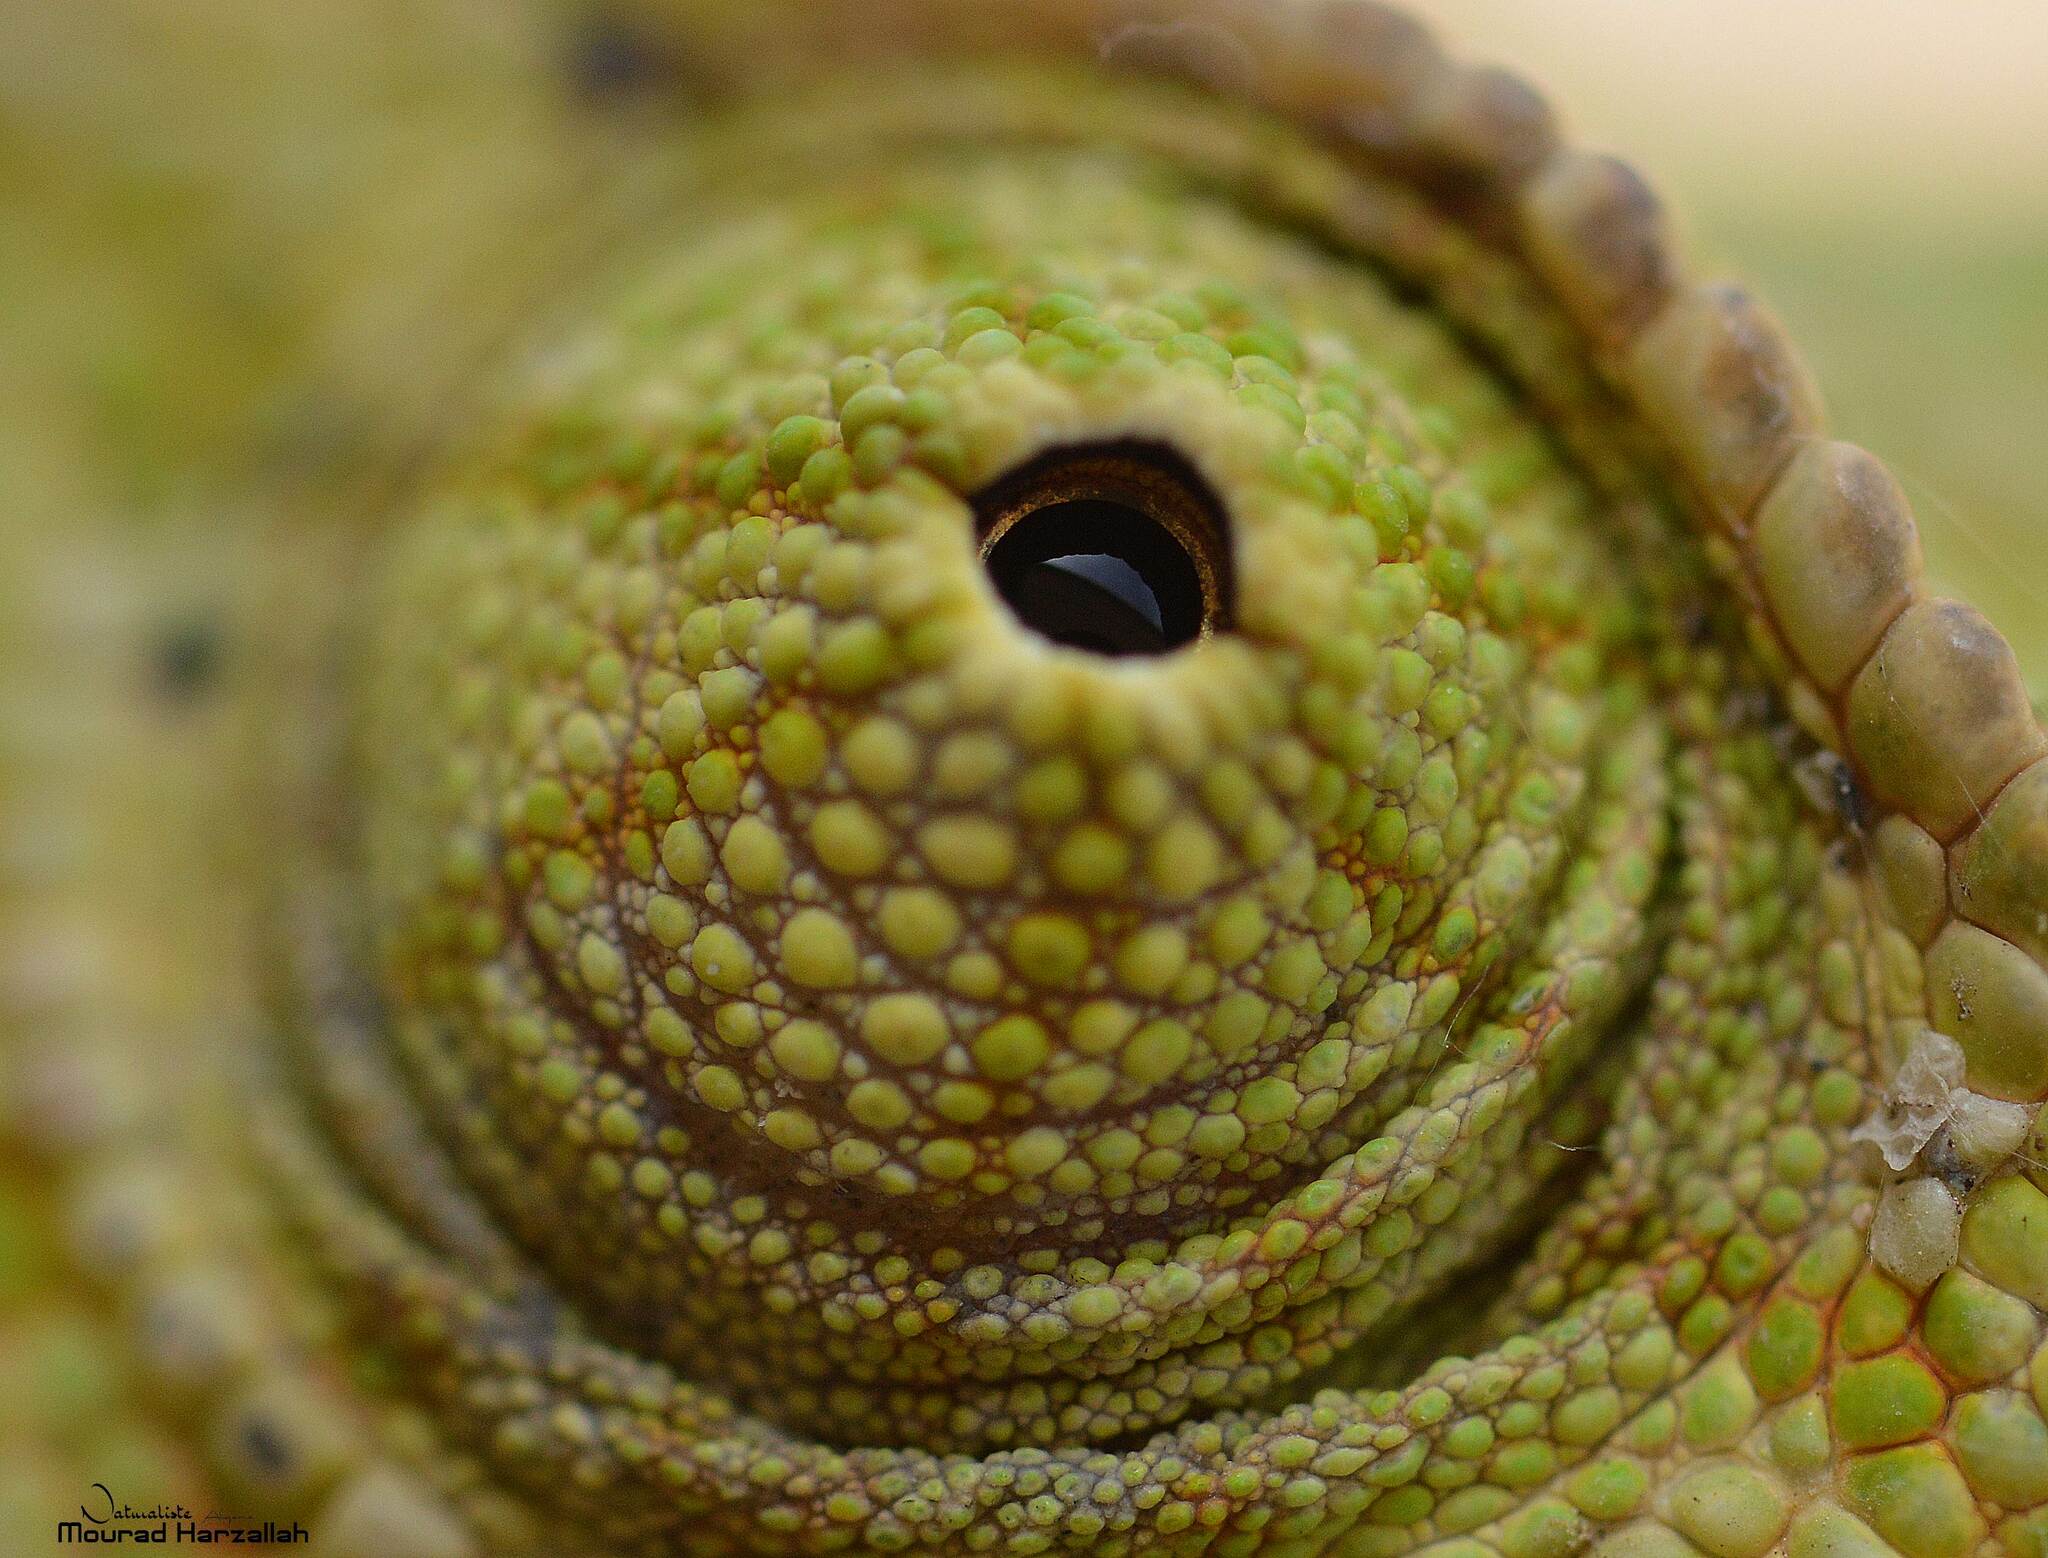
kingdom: Animalia
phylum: Chordata
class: Squamata
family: Chamaeleonidae
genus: Chamaeleo
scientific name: Chamaeleo chamaeleon
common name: Mediterranean chameleon
